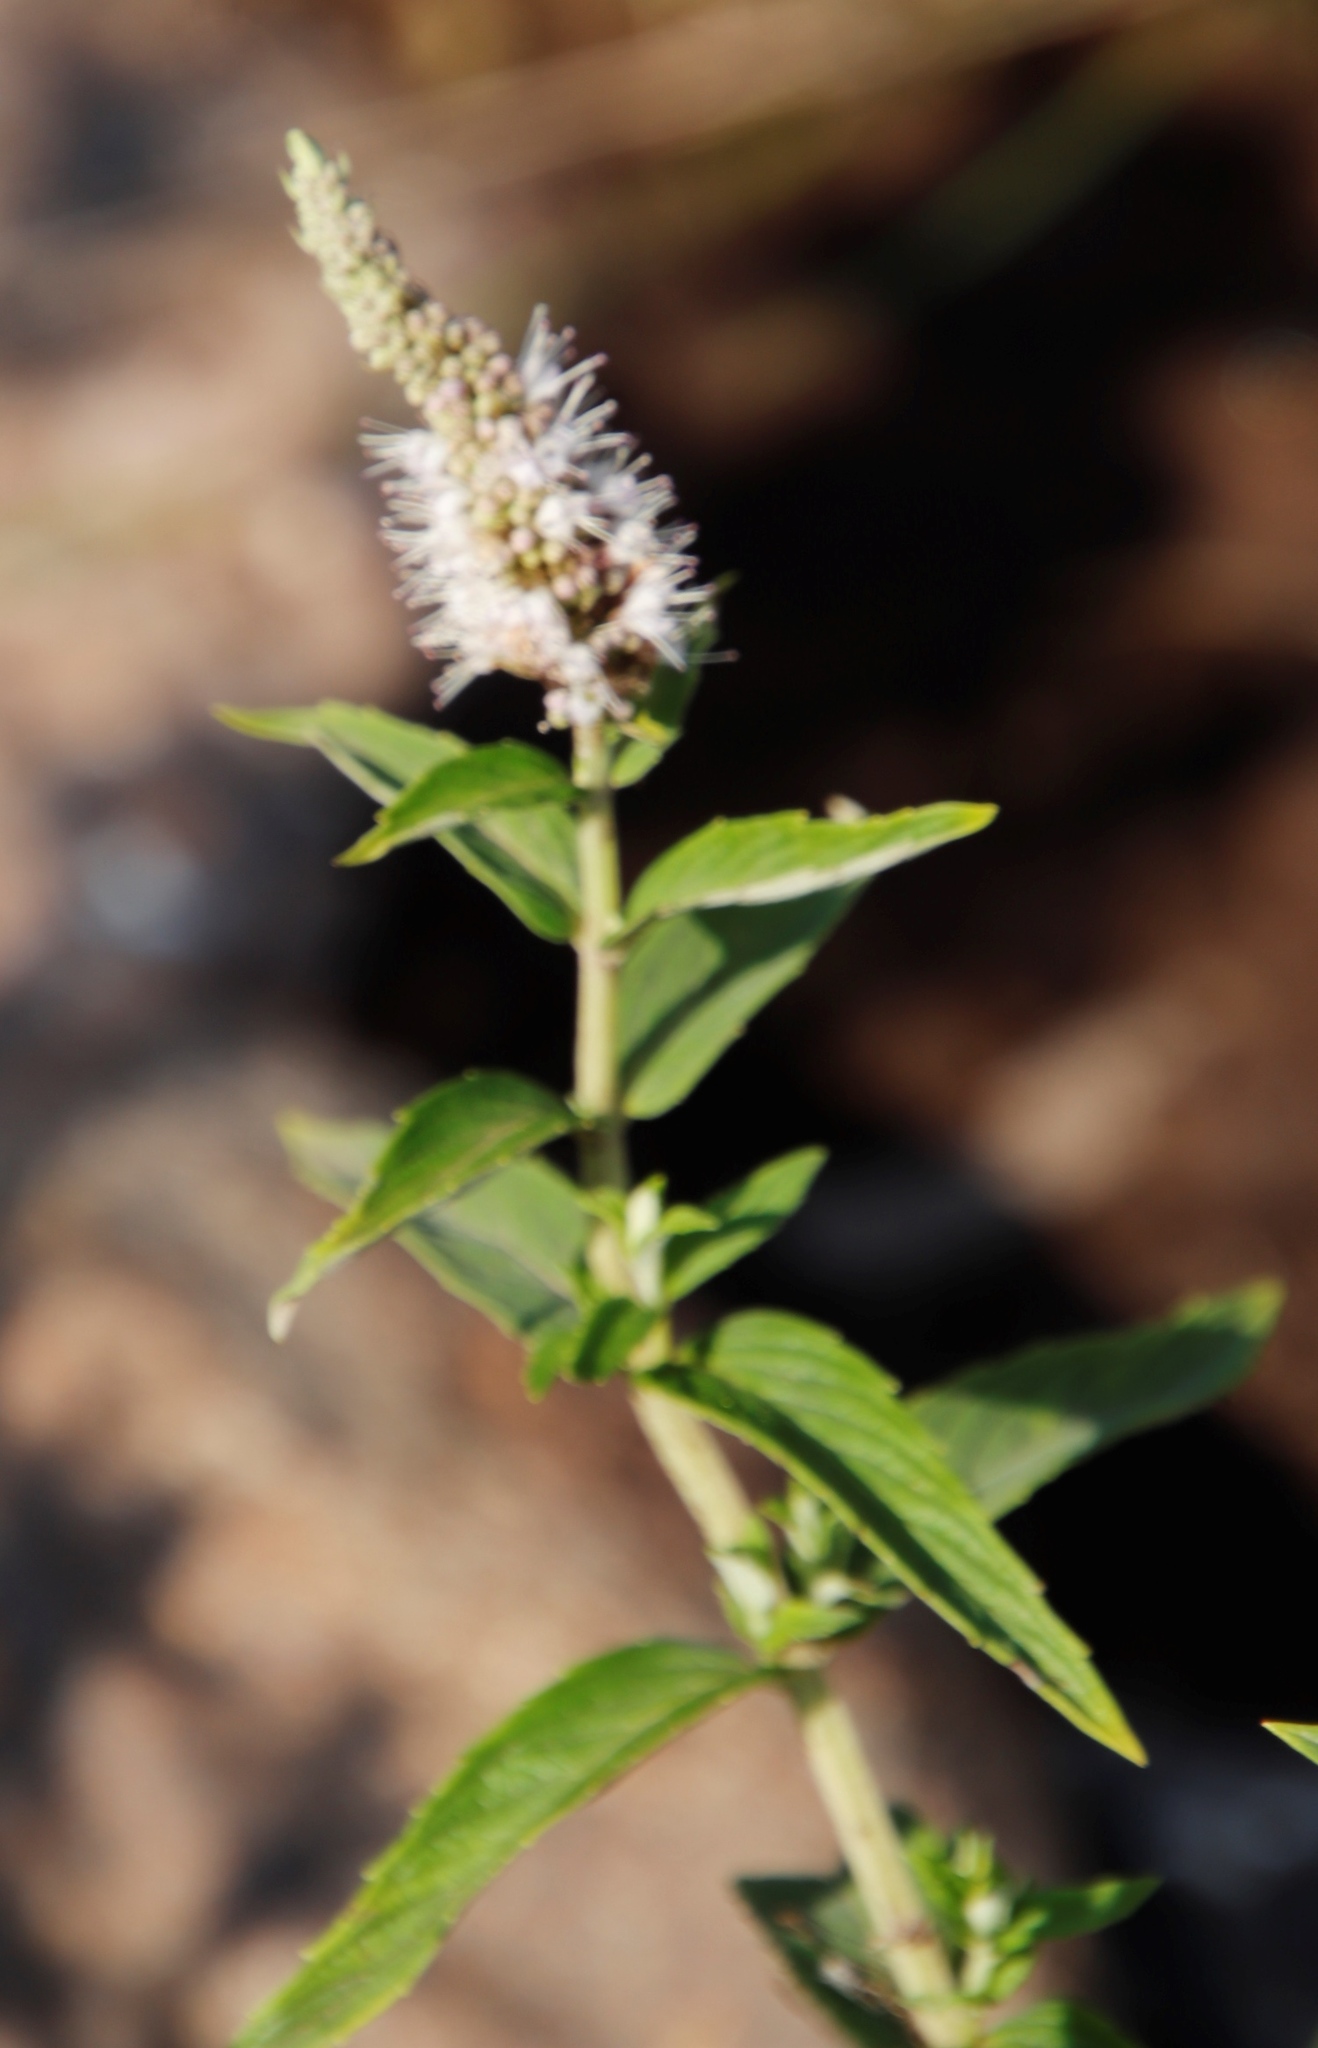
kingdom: Plantae
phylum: Tracheophyta
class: Magnoliopsida
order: Lamiales
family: Lamiaceae
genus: Mentha
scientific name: Mentha longifolia
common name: Horse mint
